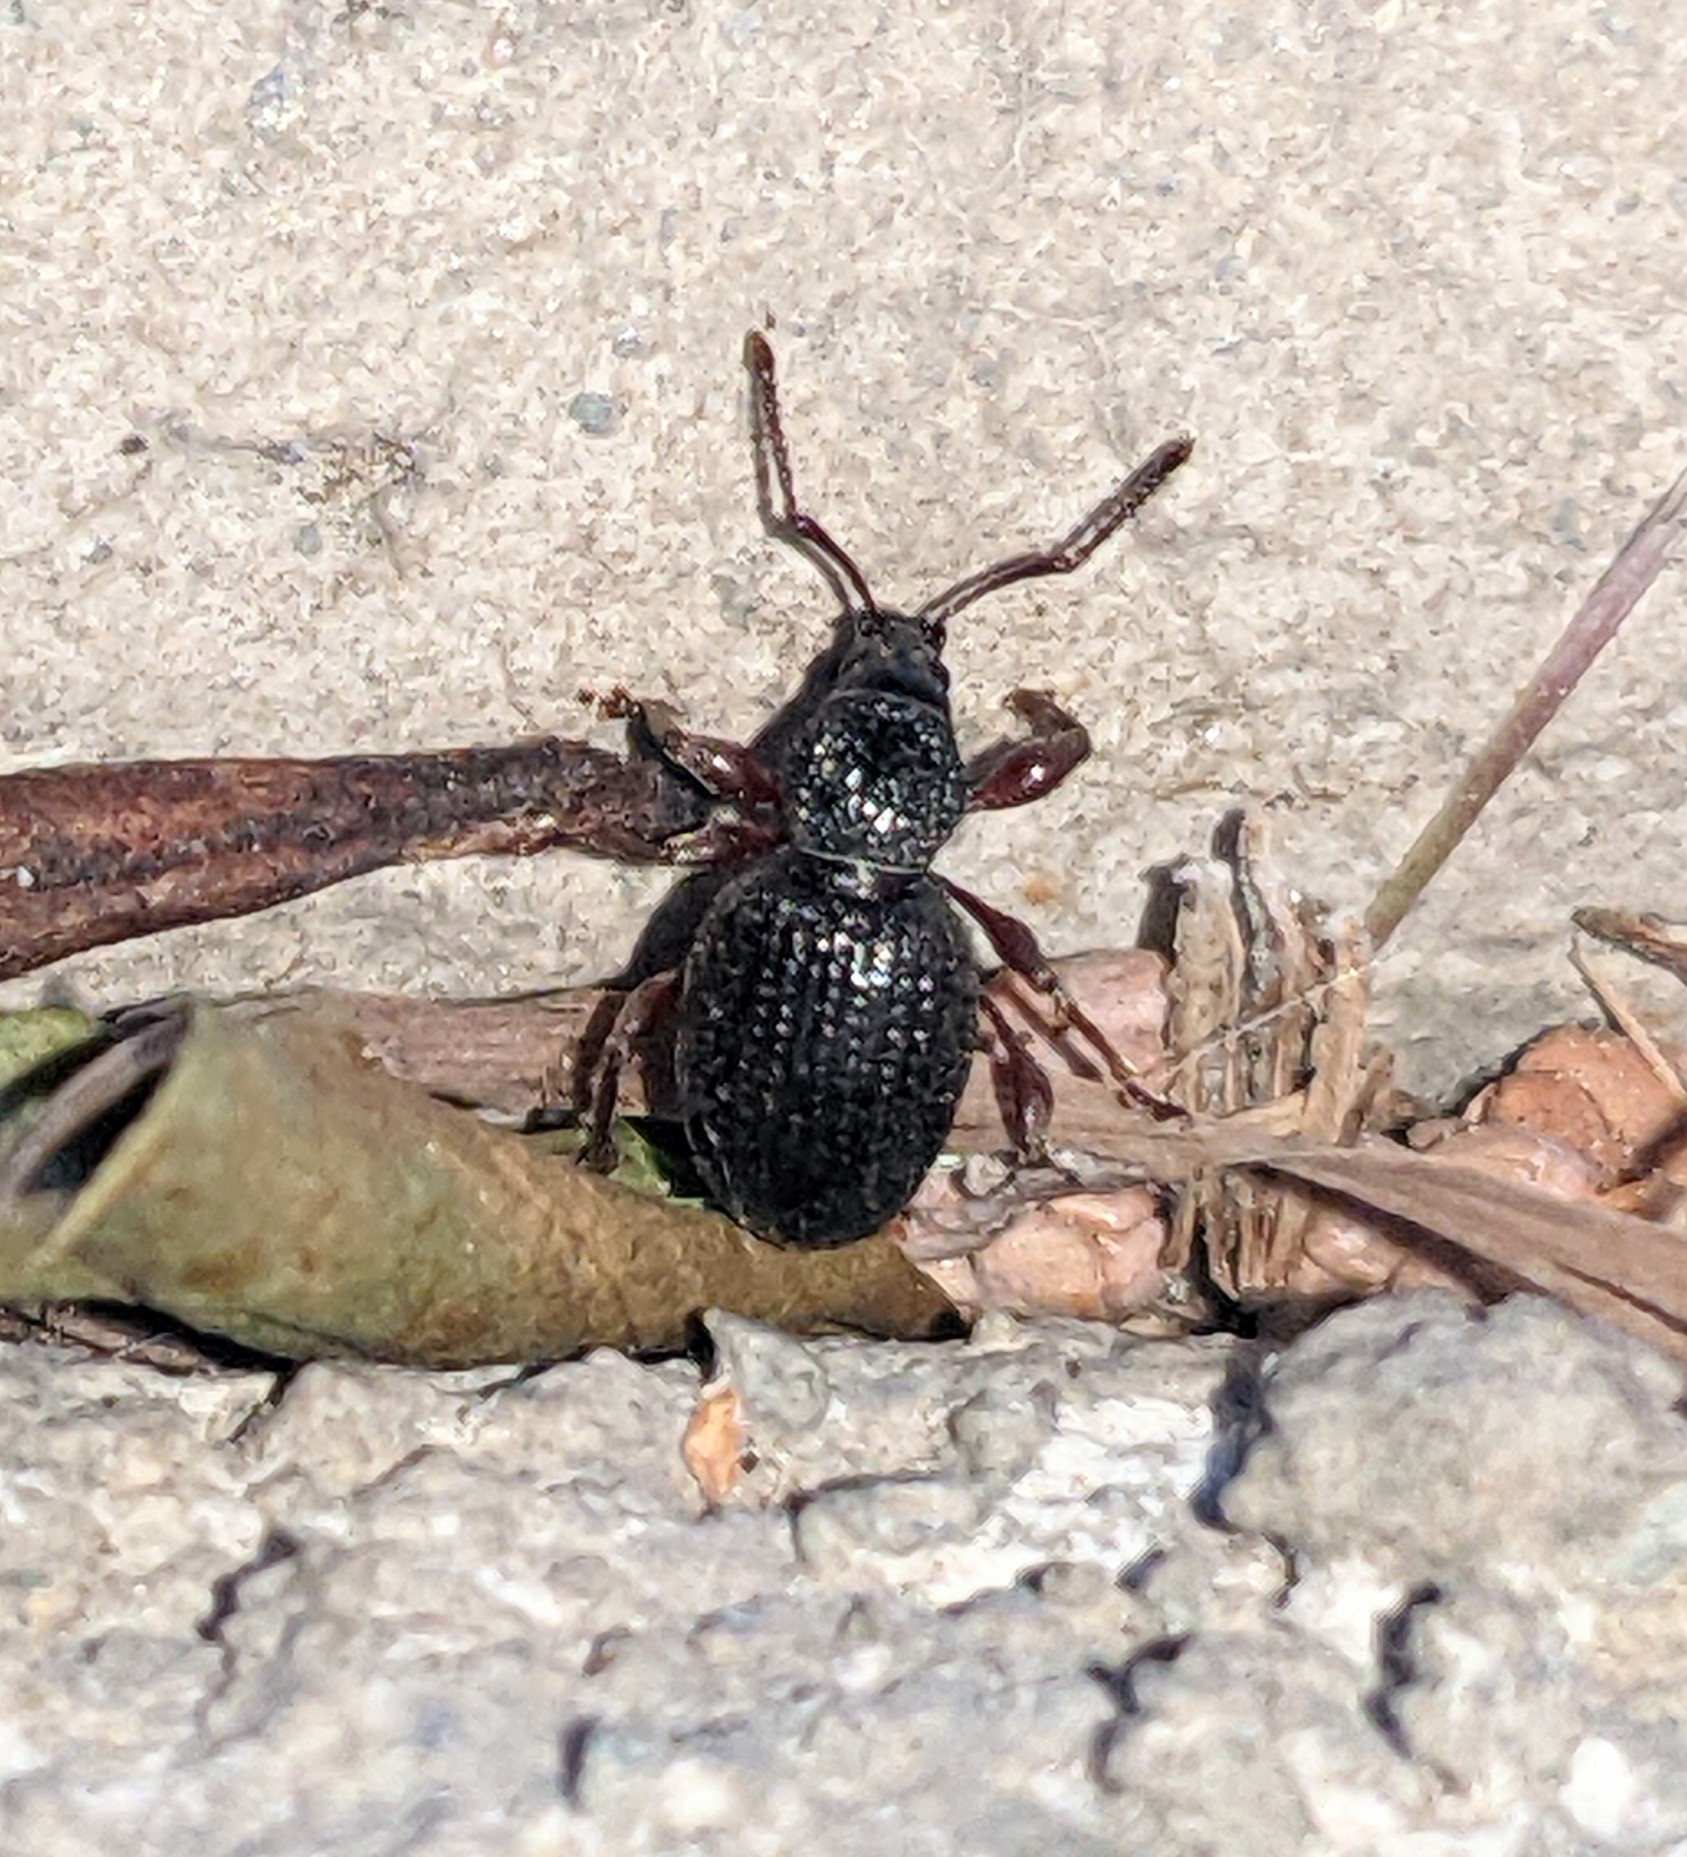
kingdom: Animalia
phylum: Arthropoda
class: Insecta
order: Coleoptera
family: Curculionidae
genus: Otiorhynchus
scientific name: Otiorhynchus ovatus
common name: Strawberry root weevil
